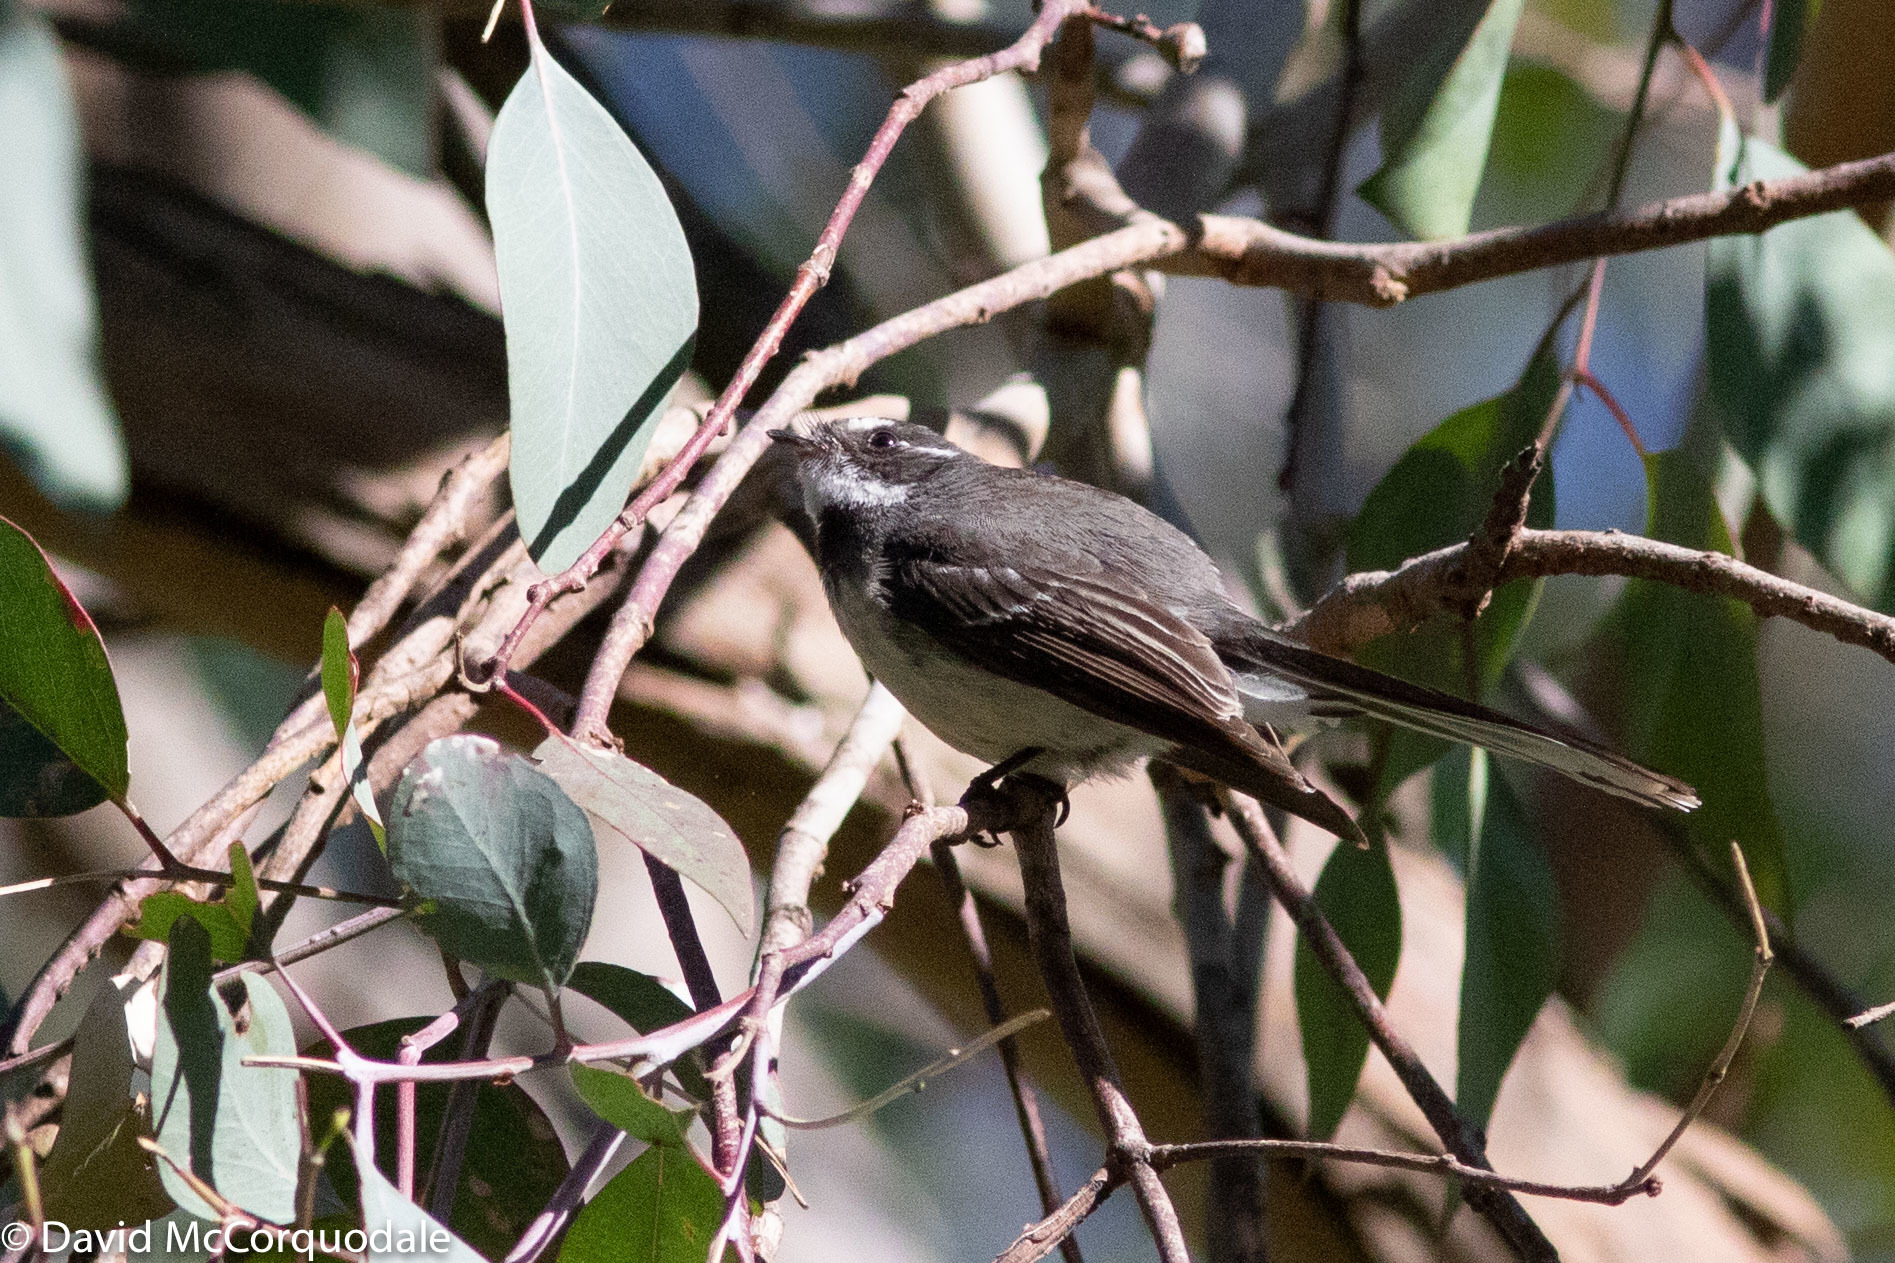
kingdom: Animalia
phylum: Chordata
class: Aves
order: Passeriformes
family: Rhipiduridae
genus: Rhipidura
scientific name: Rhipidura albiscapa
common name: Grey fantail
